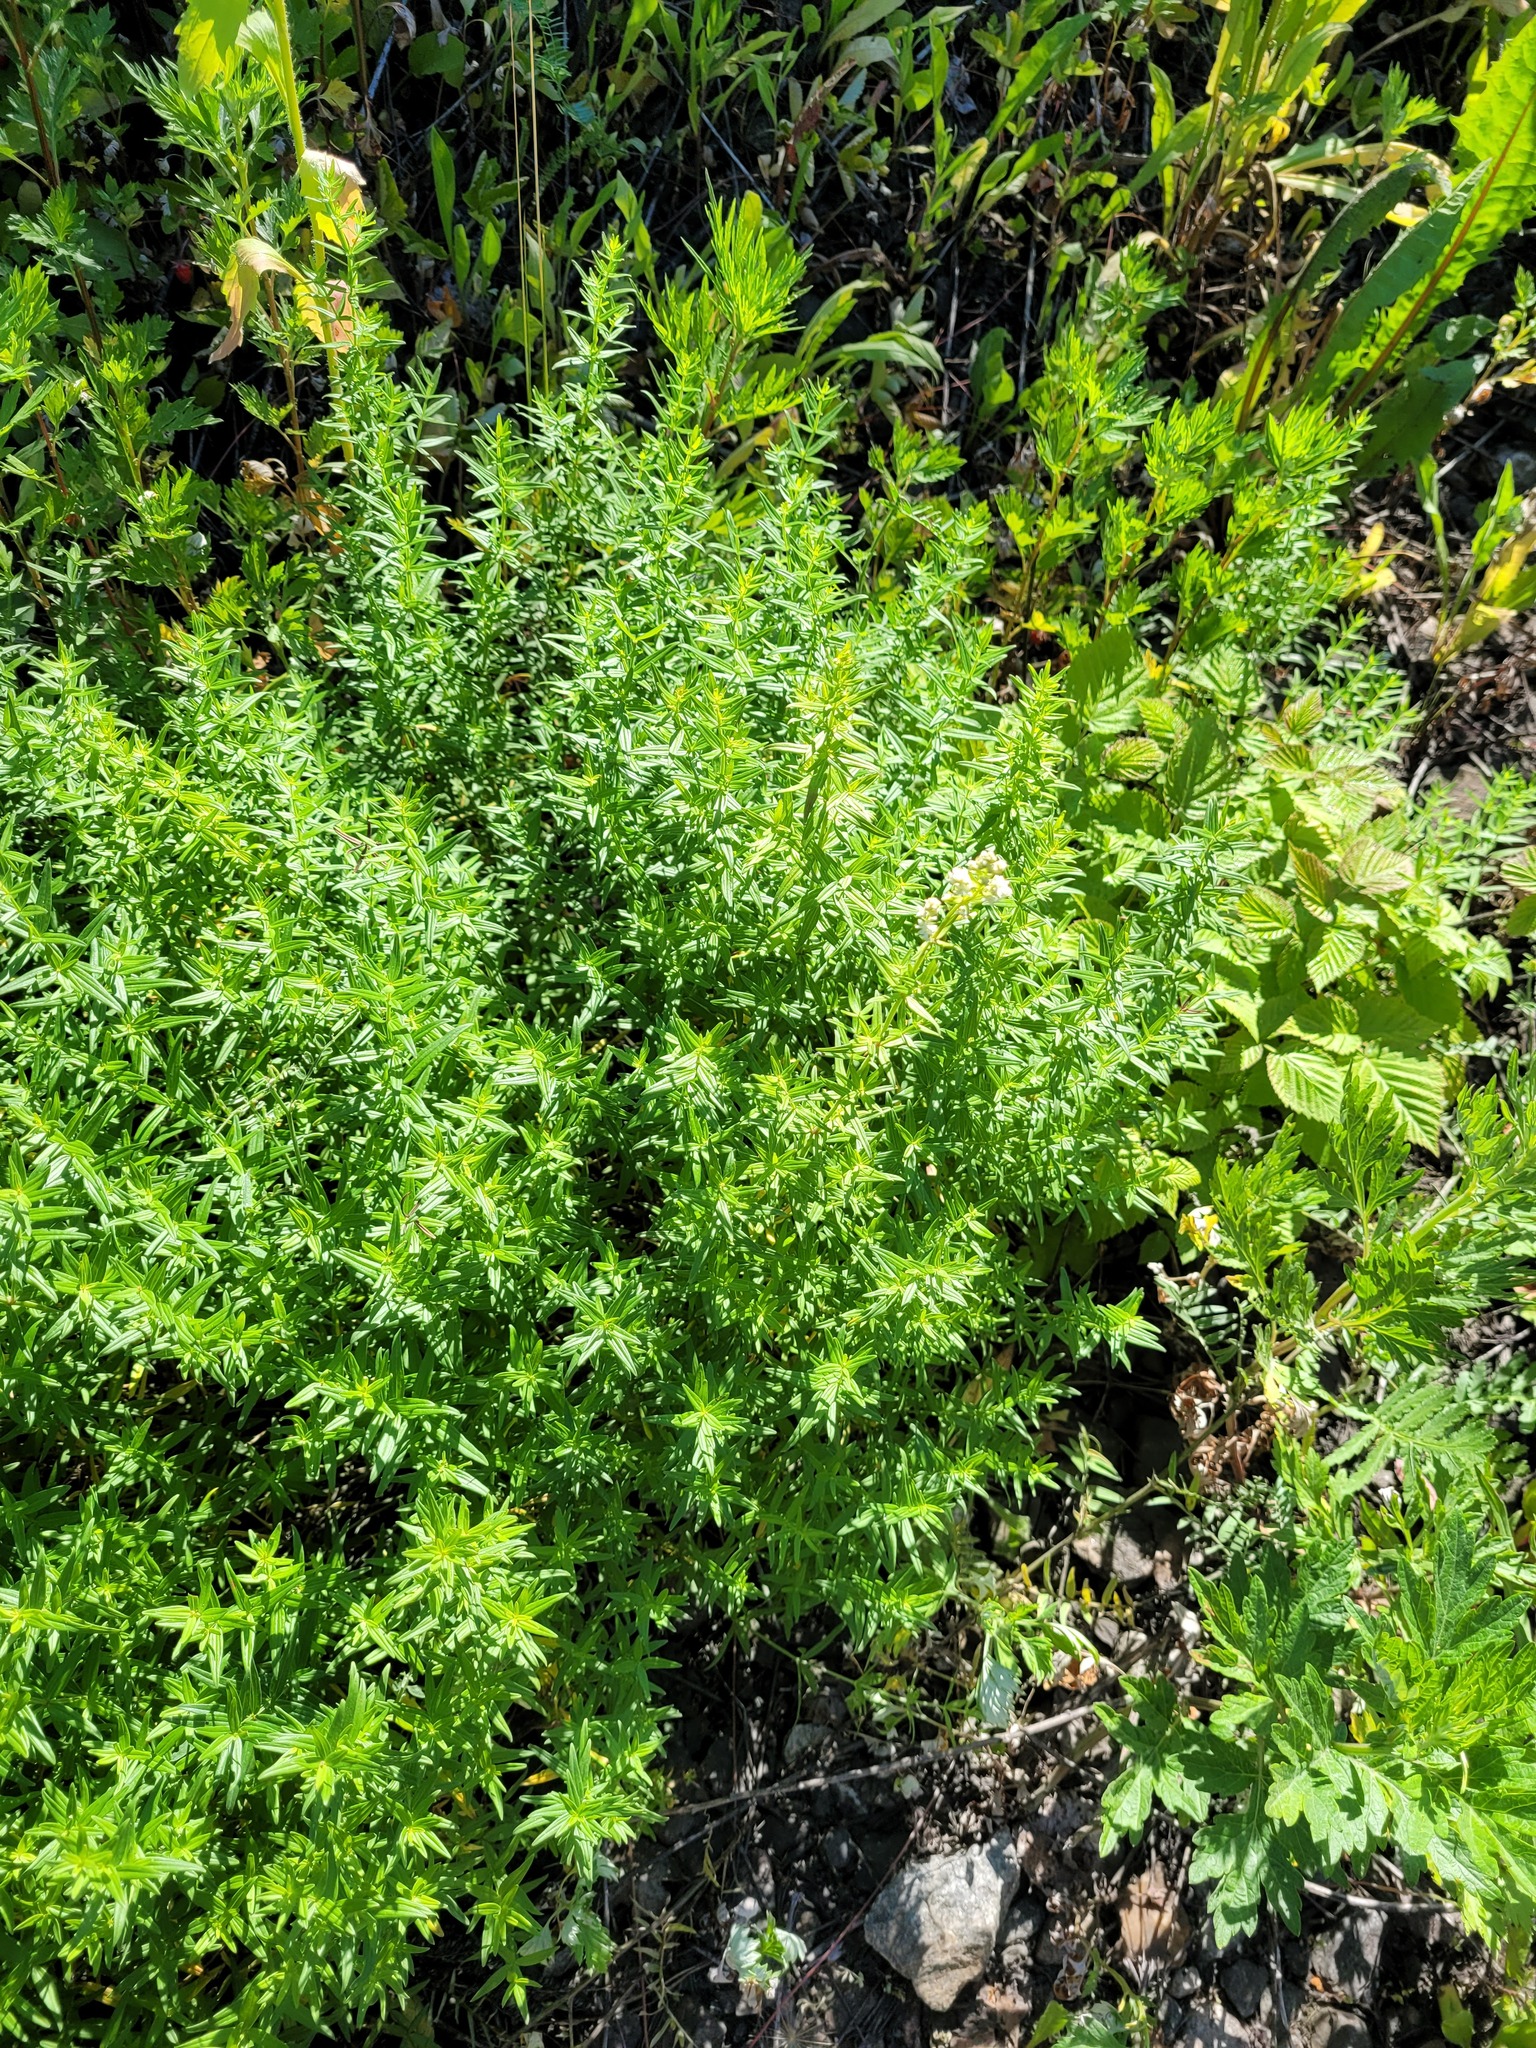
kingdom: Plantae
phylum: Tracheophyta
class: Magnoliopsida
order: Gentianales
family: Rubiaceae
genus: Galium
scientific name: Galium boreale
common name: Northern bedstraw
